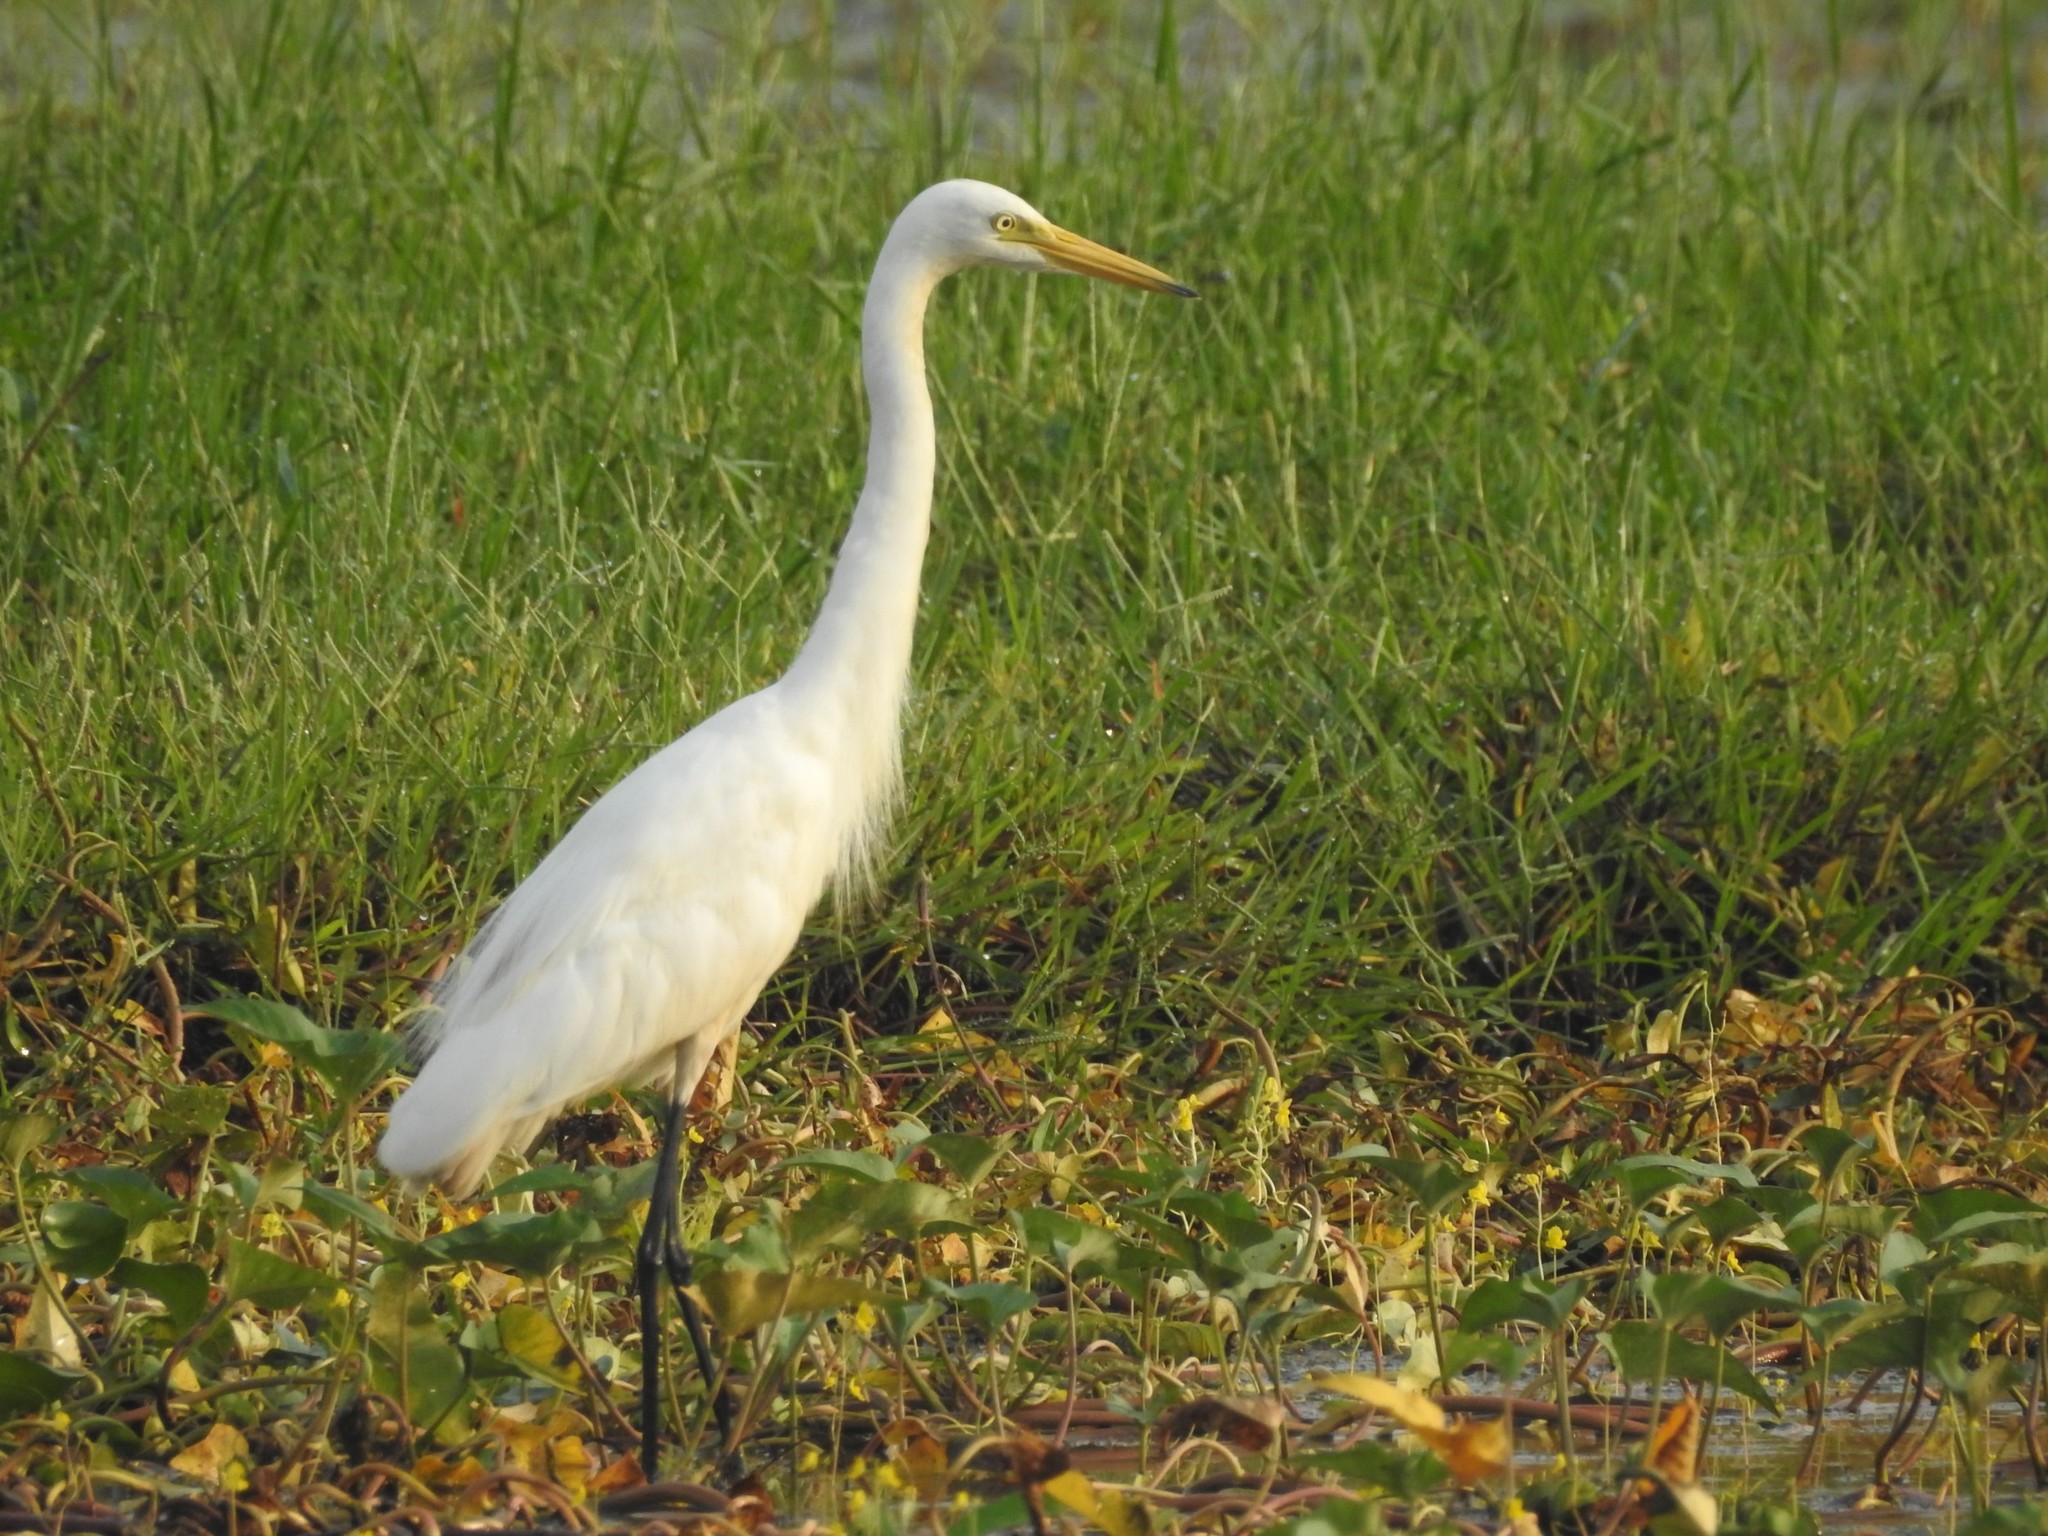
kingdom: Animalia
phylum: Chordata
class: Aves
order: Pelecaniformes
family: Ardeidae
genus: Egretta
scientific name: Egretta intermedia
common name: Intermediate egret
